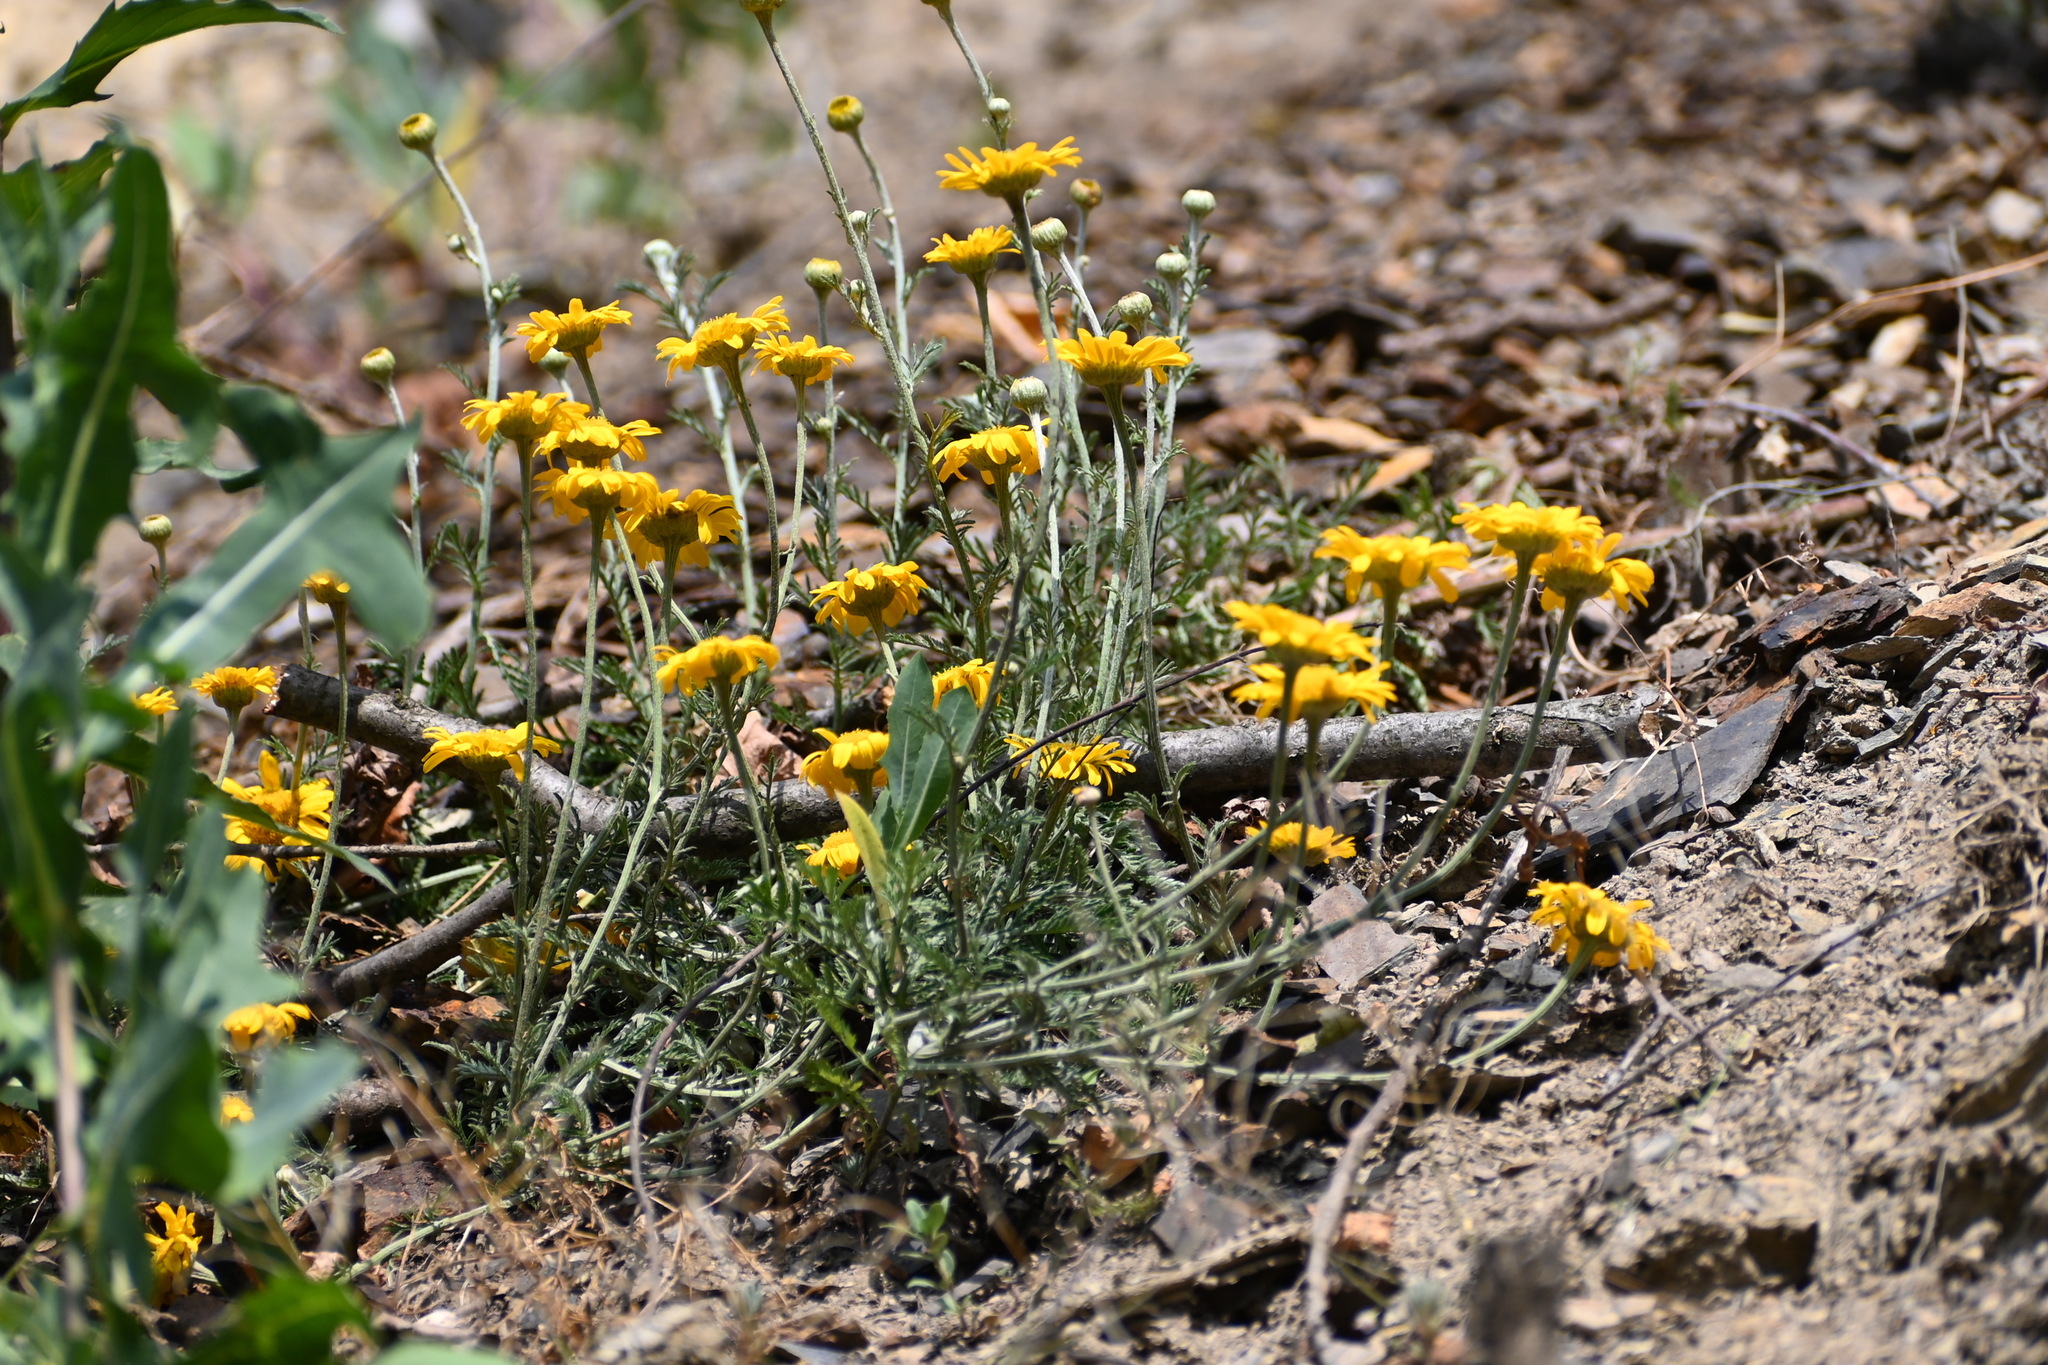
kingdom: Plantae
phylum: Tracheophyta
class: Magnoliopsida
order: Asterales
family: Asteraceae
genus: Cota
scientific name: Cota tinctoria
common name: Golden chamomile
